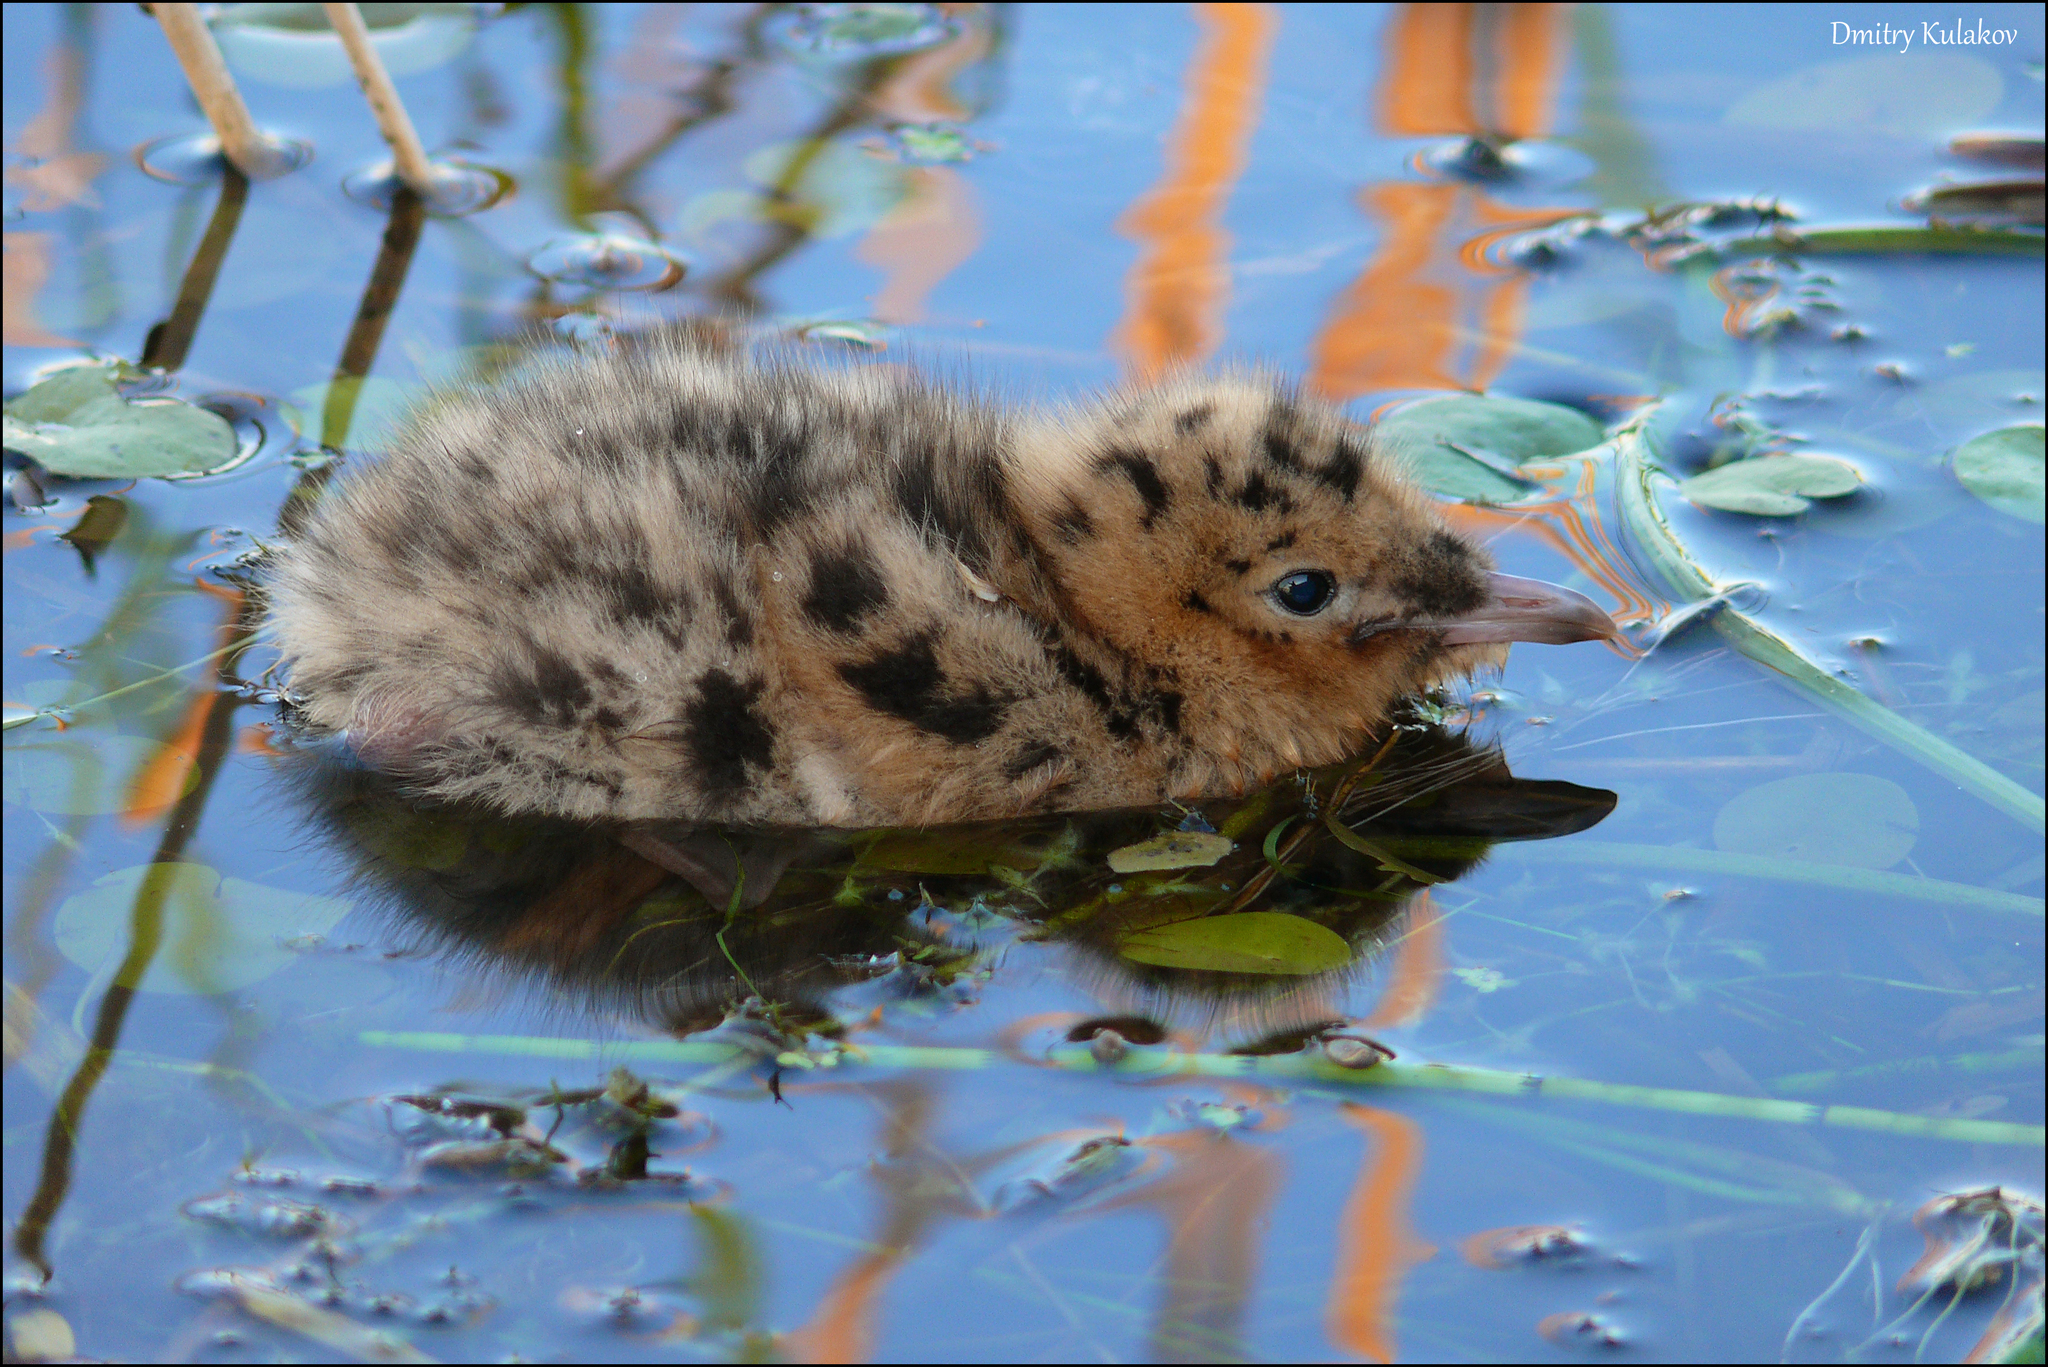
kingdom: Animalia
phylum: Chordata
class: Aves
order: Charadriiformes
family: Laridae
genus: Chroicocephalus
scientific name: Chroicocephalus ridibundus
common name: Black-headed gull
